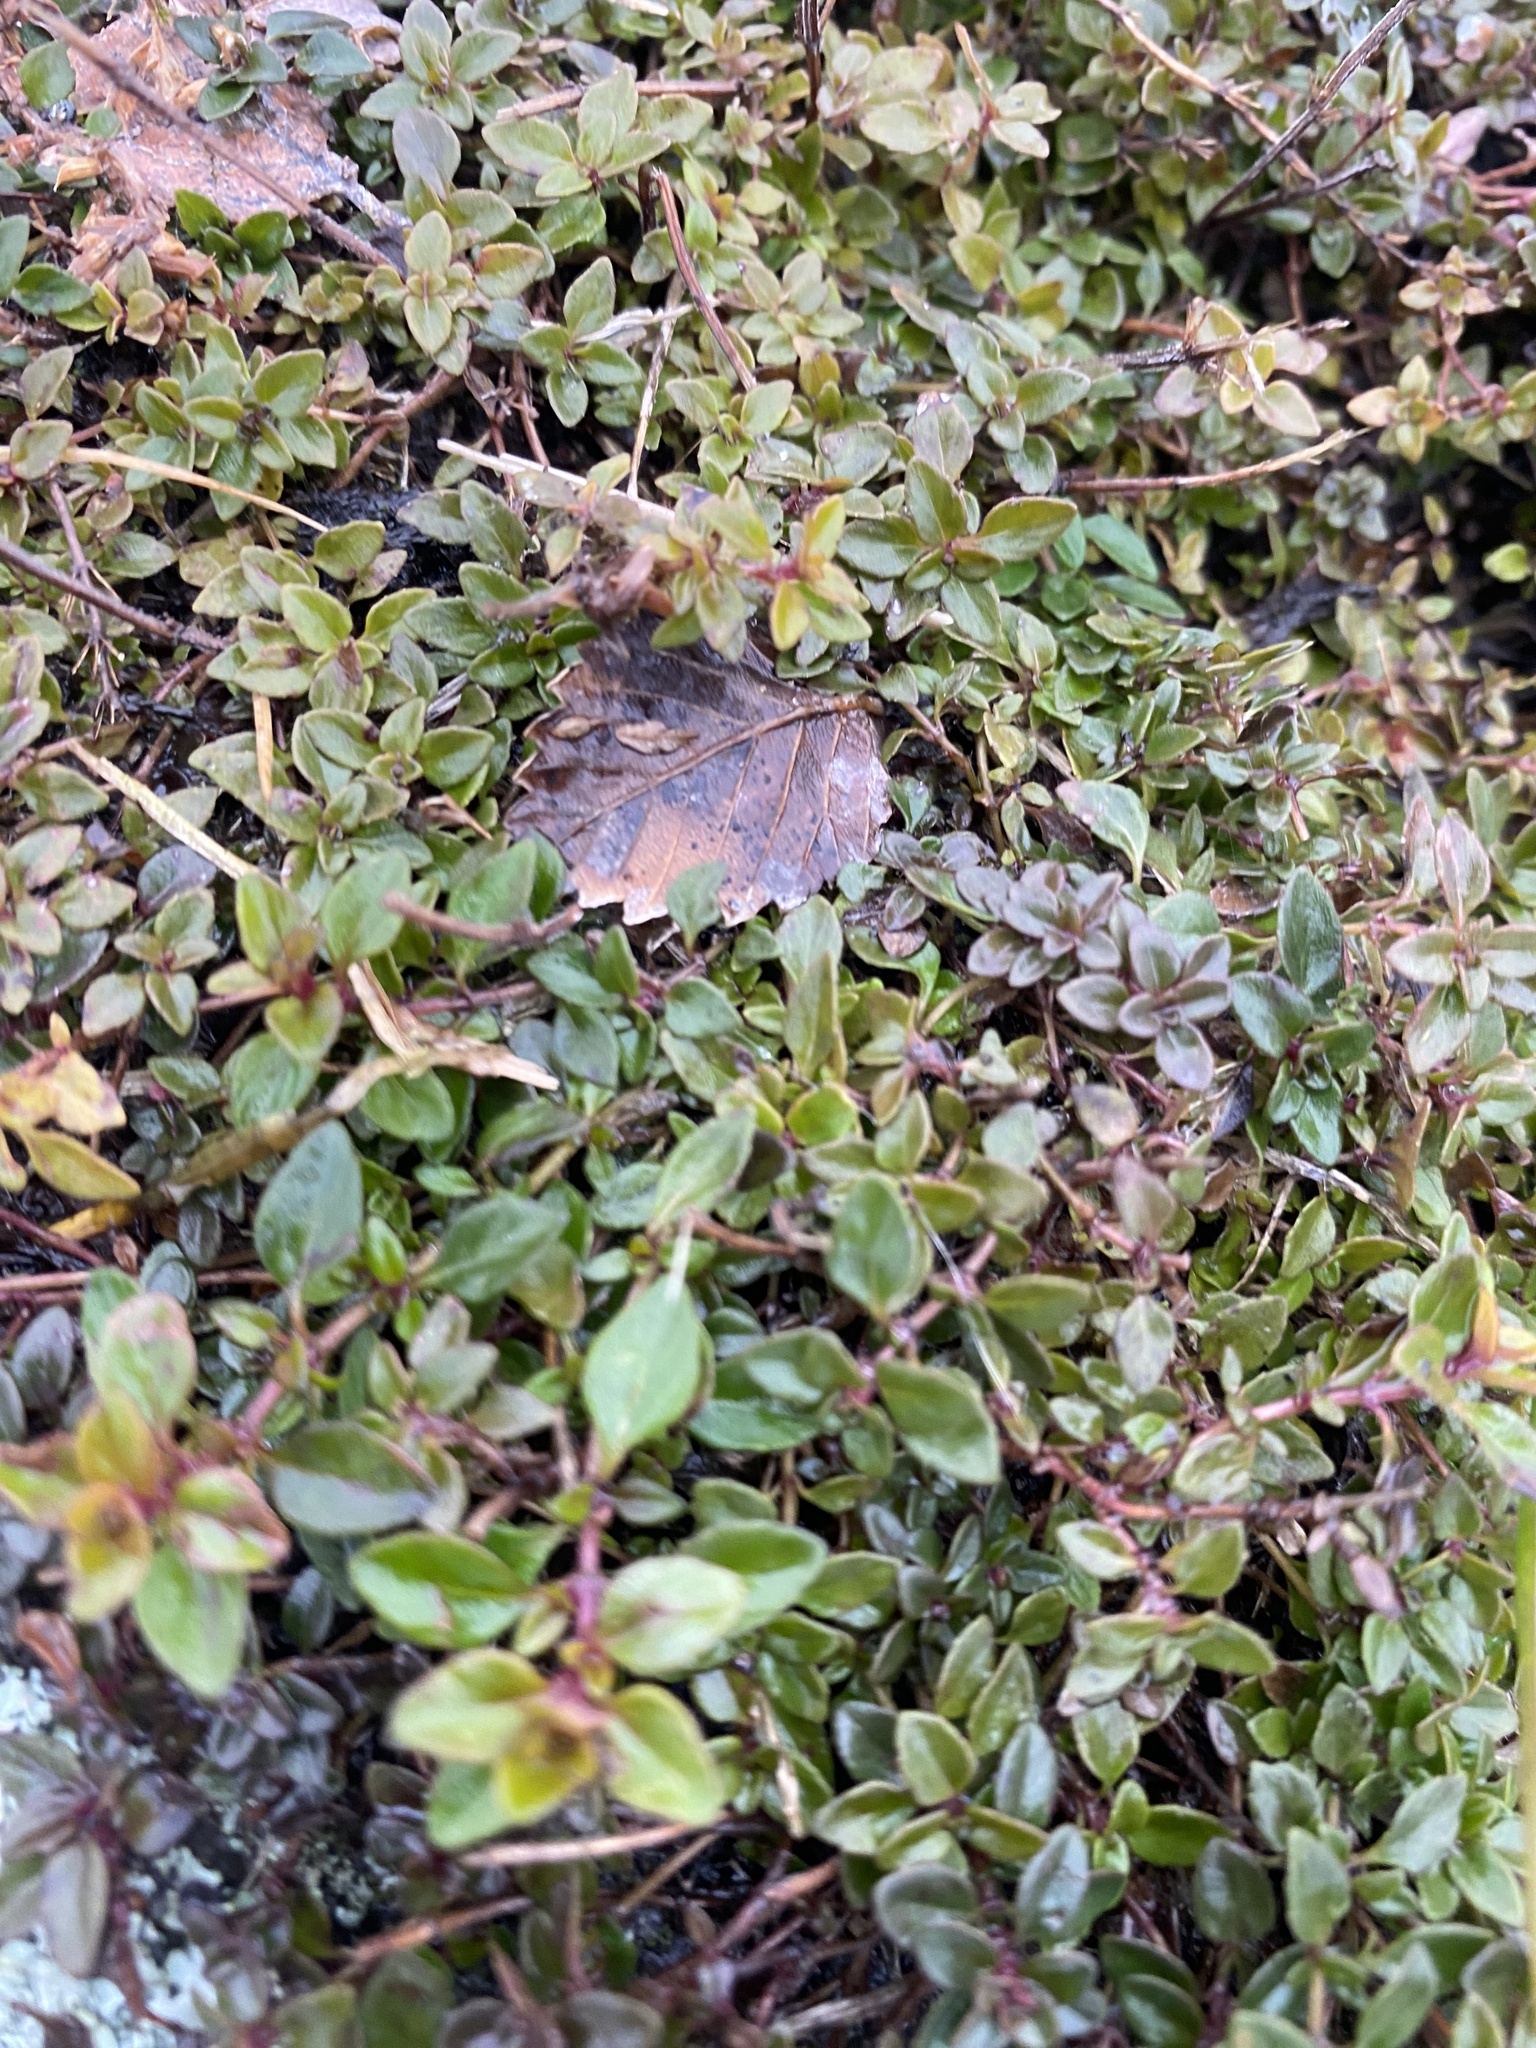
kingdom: Plantae
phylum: Tracheophyta
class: Magnoliopsida
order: Lamiales
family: Lamiaceae
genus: Thymus
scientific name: Thymus
